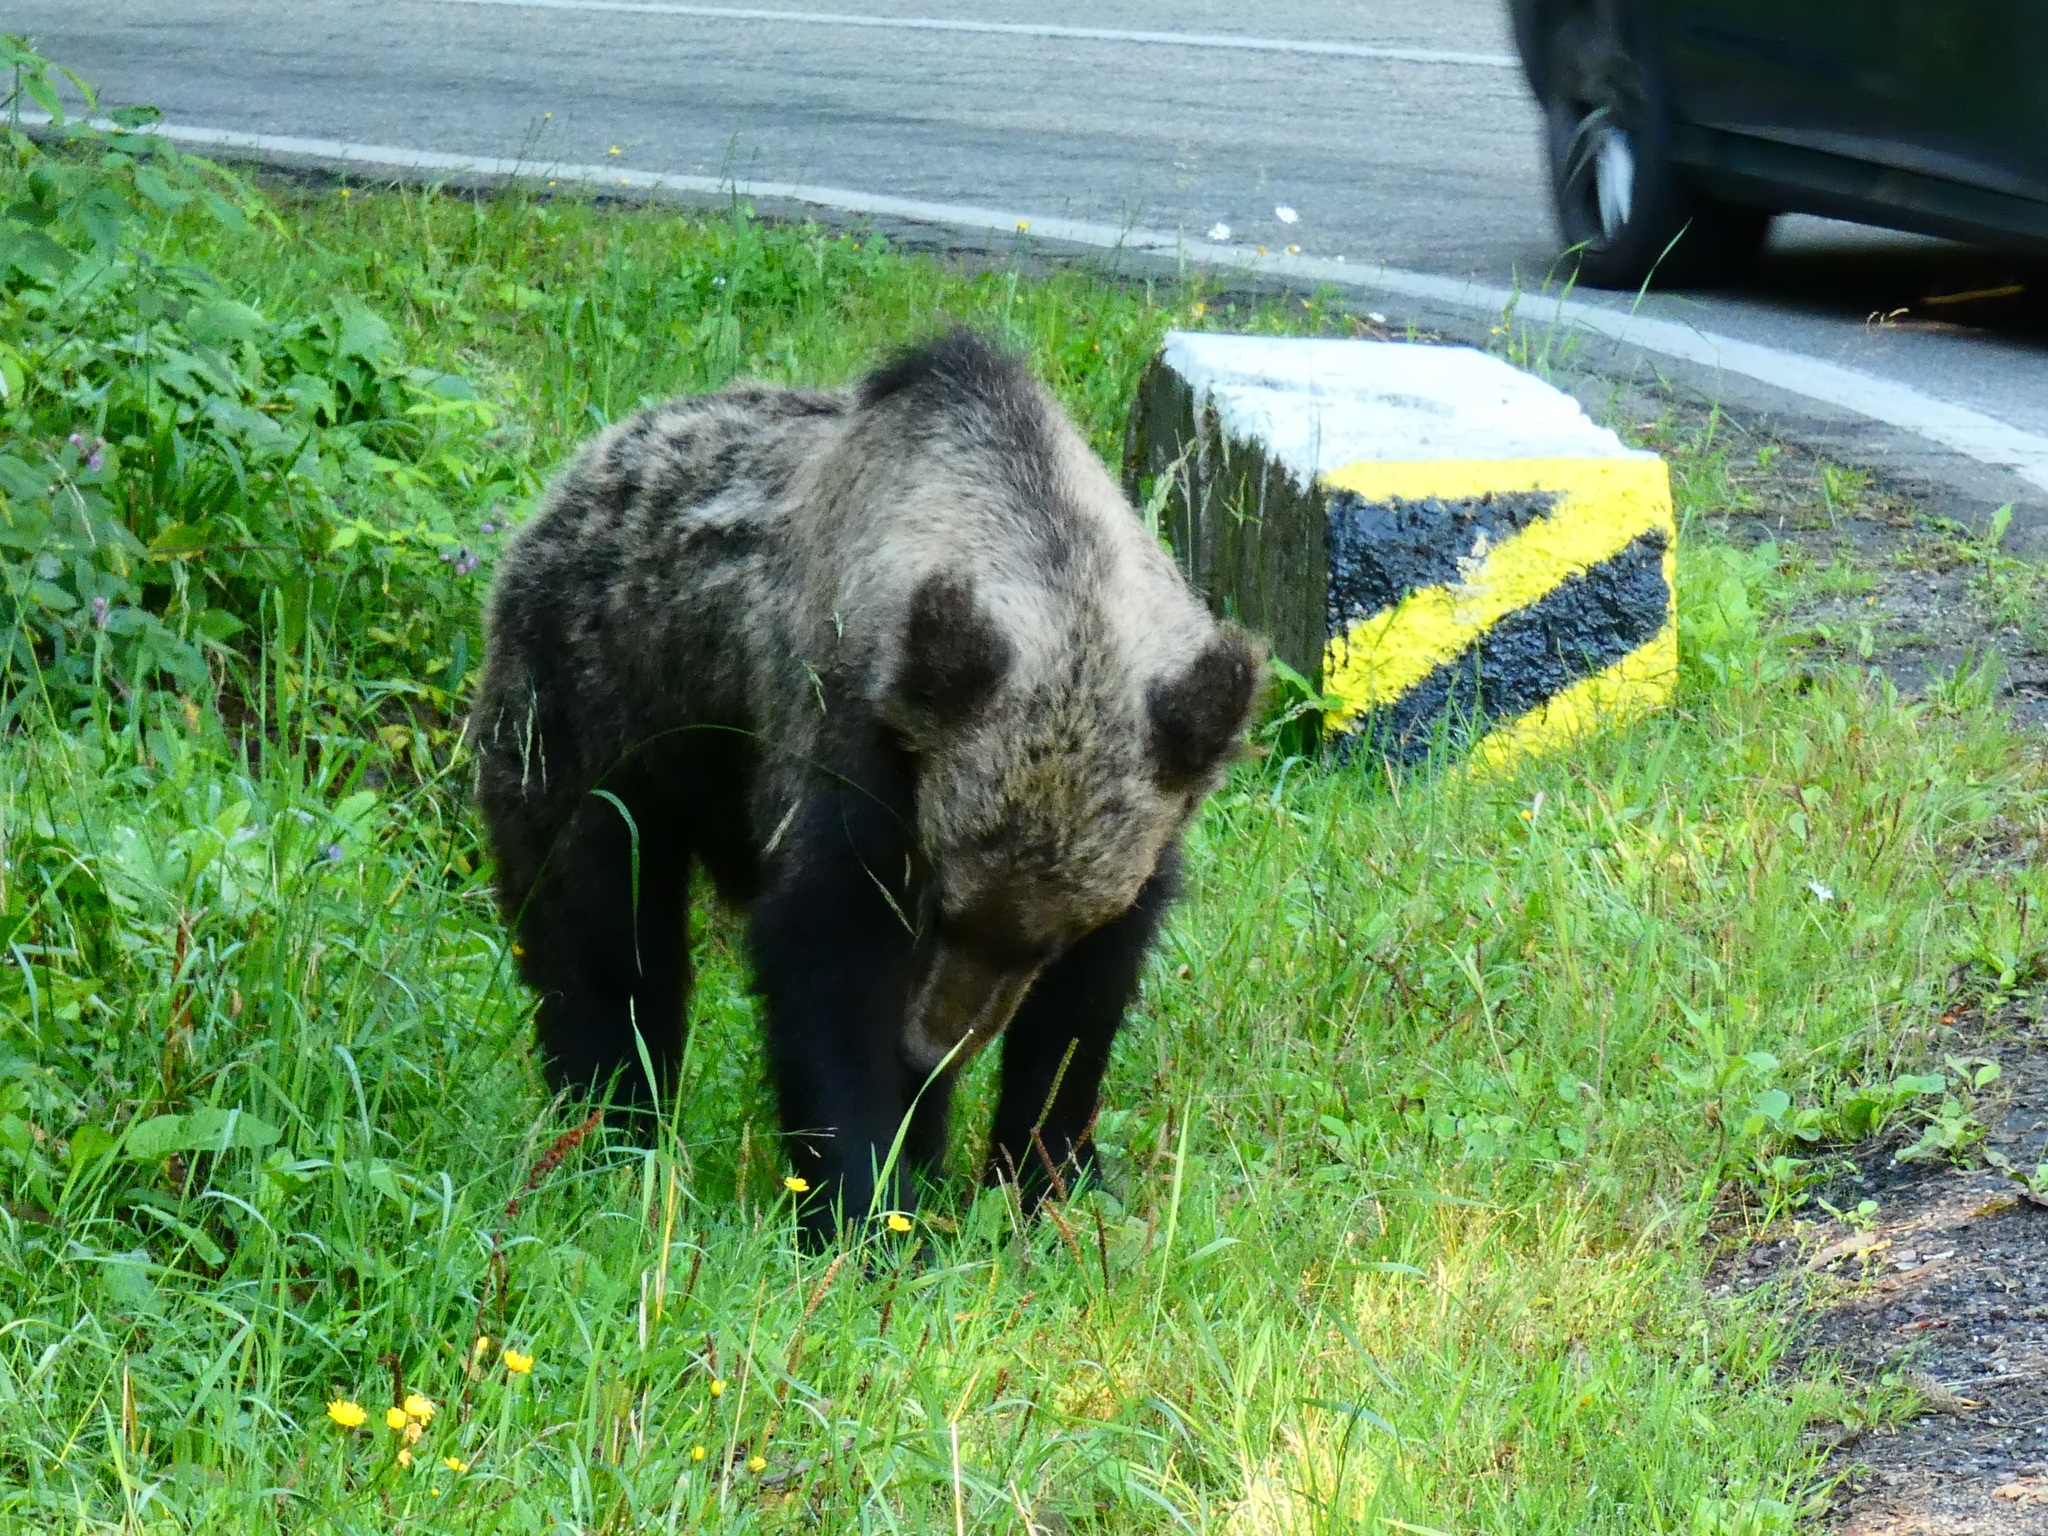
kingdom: Animalia
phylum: Chordata
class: Mammalia
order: Carnivora
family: Ursidae
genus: Ursus
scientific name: Ursus arctos
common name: Brown bear
